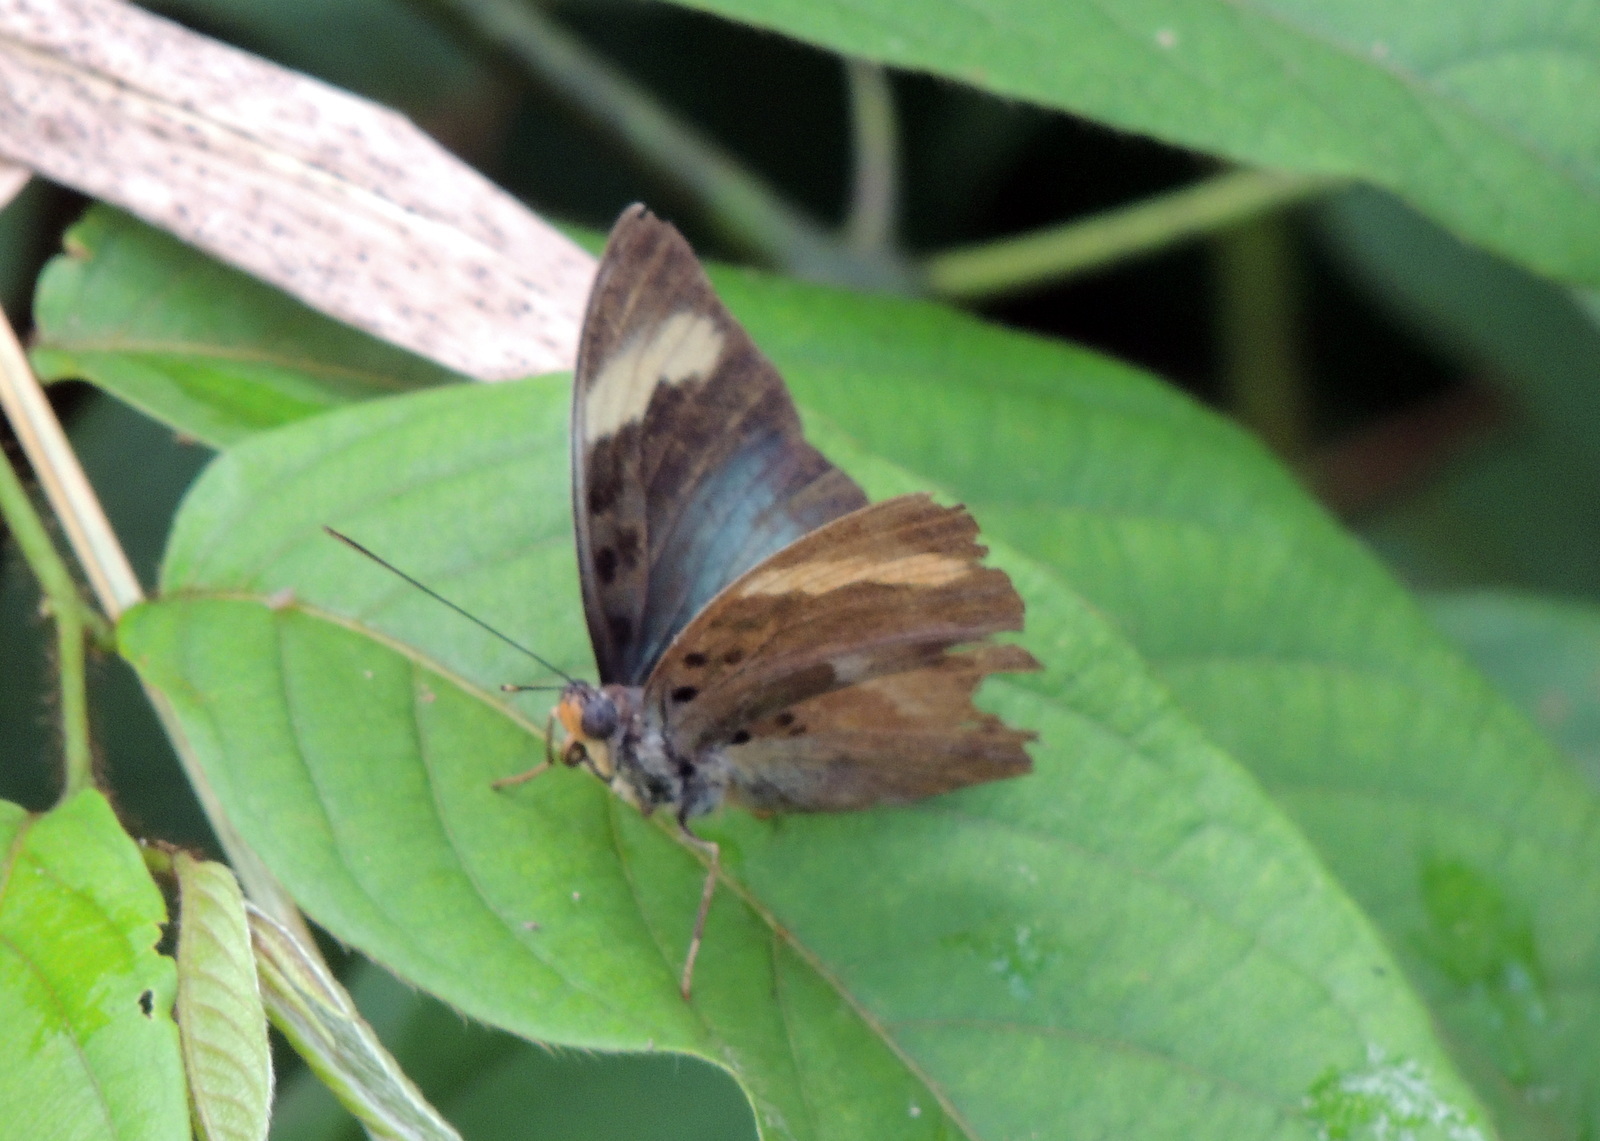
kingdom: Animalia
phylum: Arthropoda
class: Insecta
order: Lepidoptera
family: Nymphalidae
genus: Euphaedra
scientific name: Euphaedra medon
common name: Widespread forester
